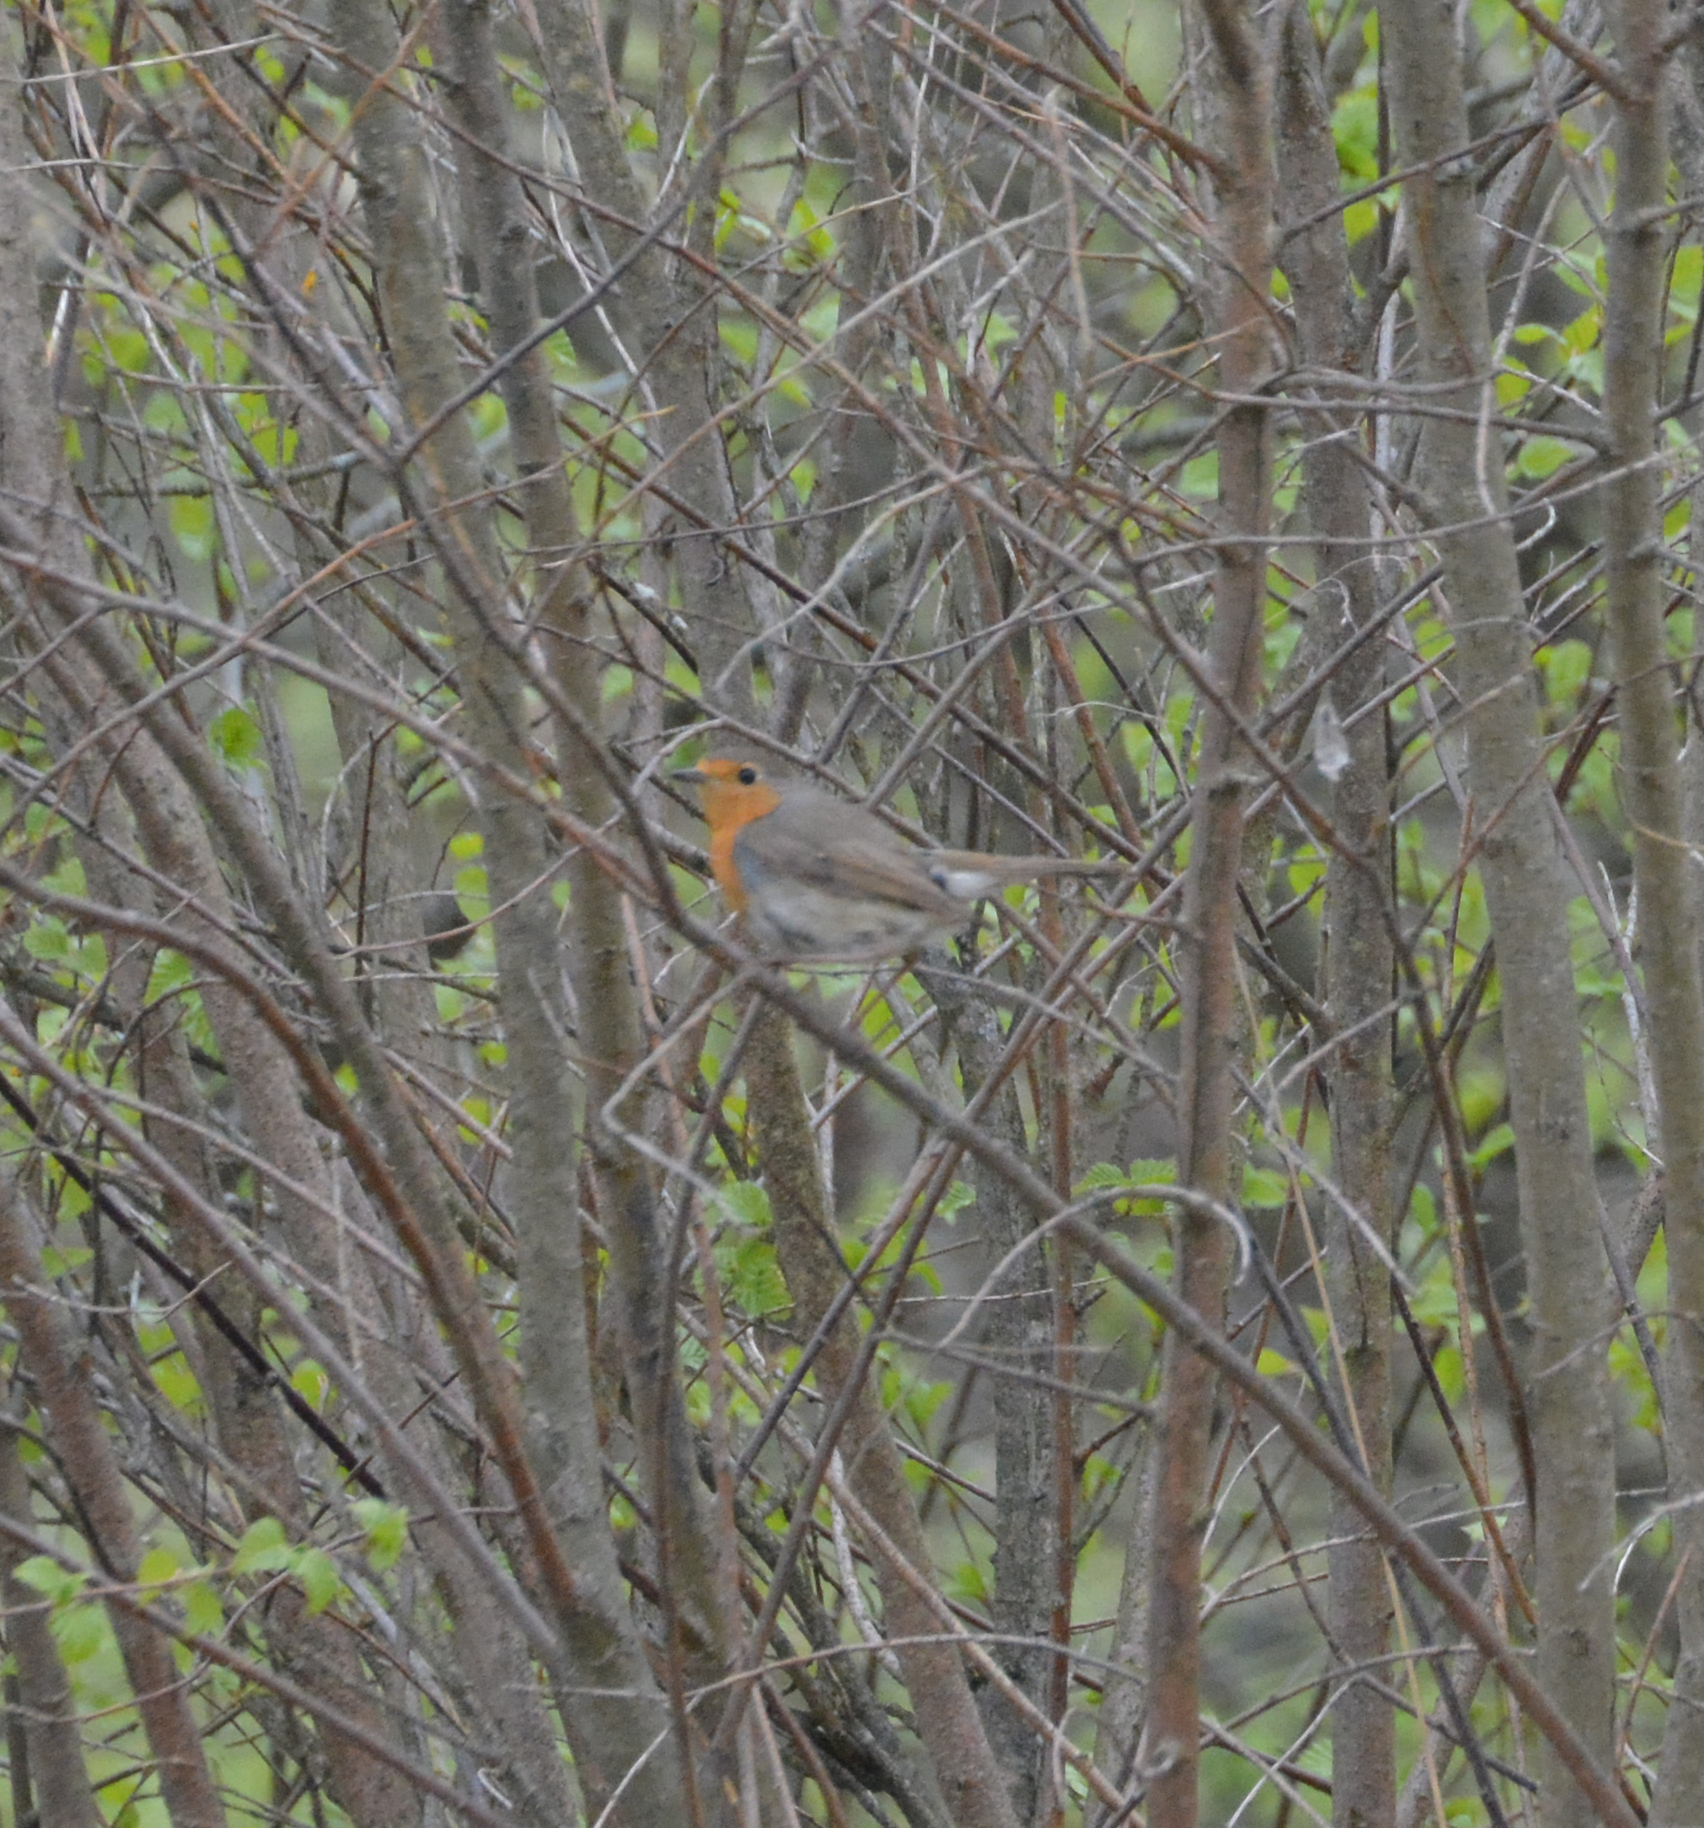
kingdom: Animalia
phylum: Chordata
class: Aves
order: Passeriformes
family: Muscicapidae
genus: Erithacus
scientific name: Erithacus rubecula
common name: European robin
